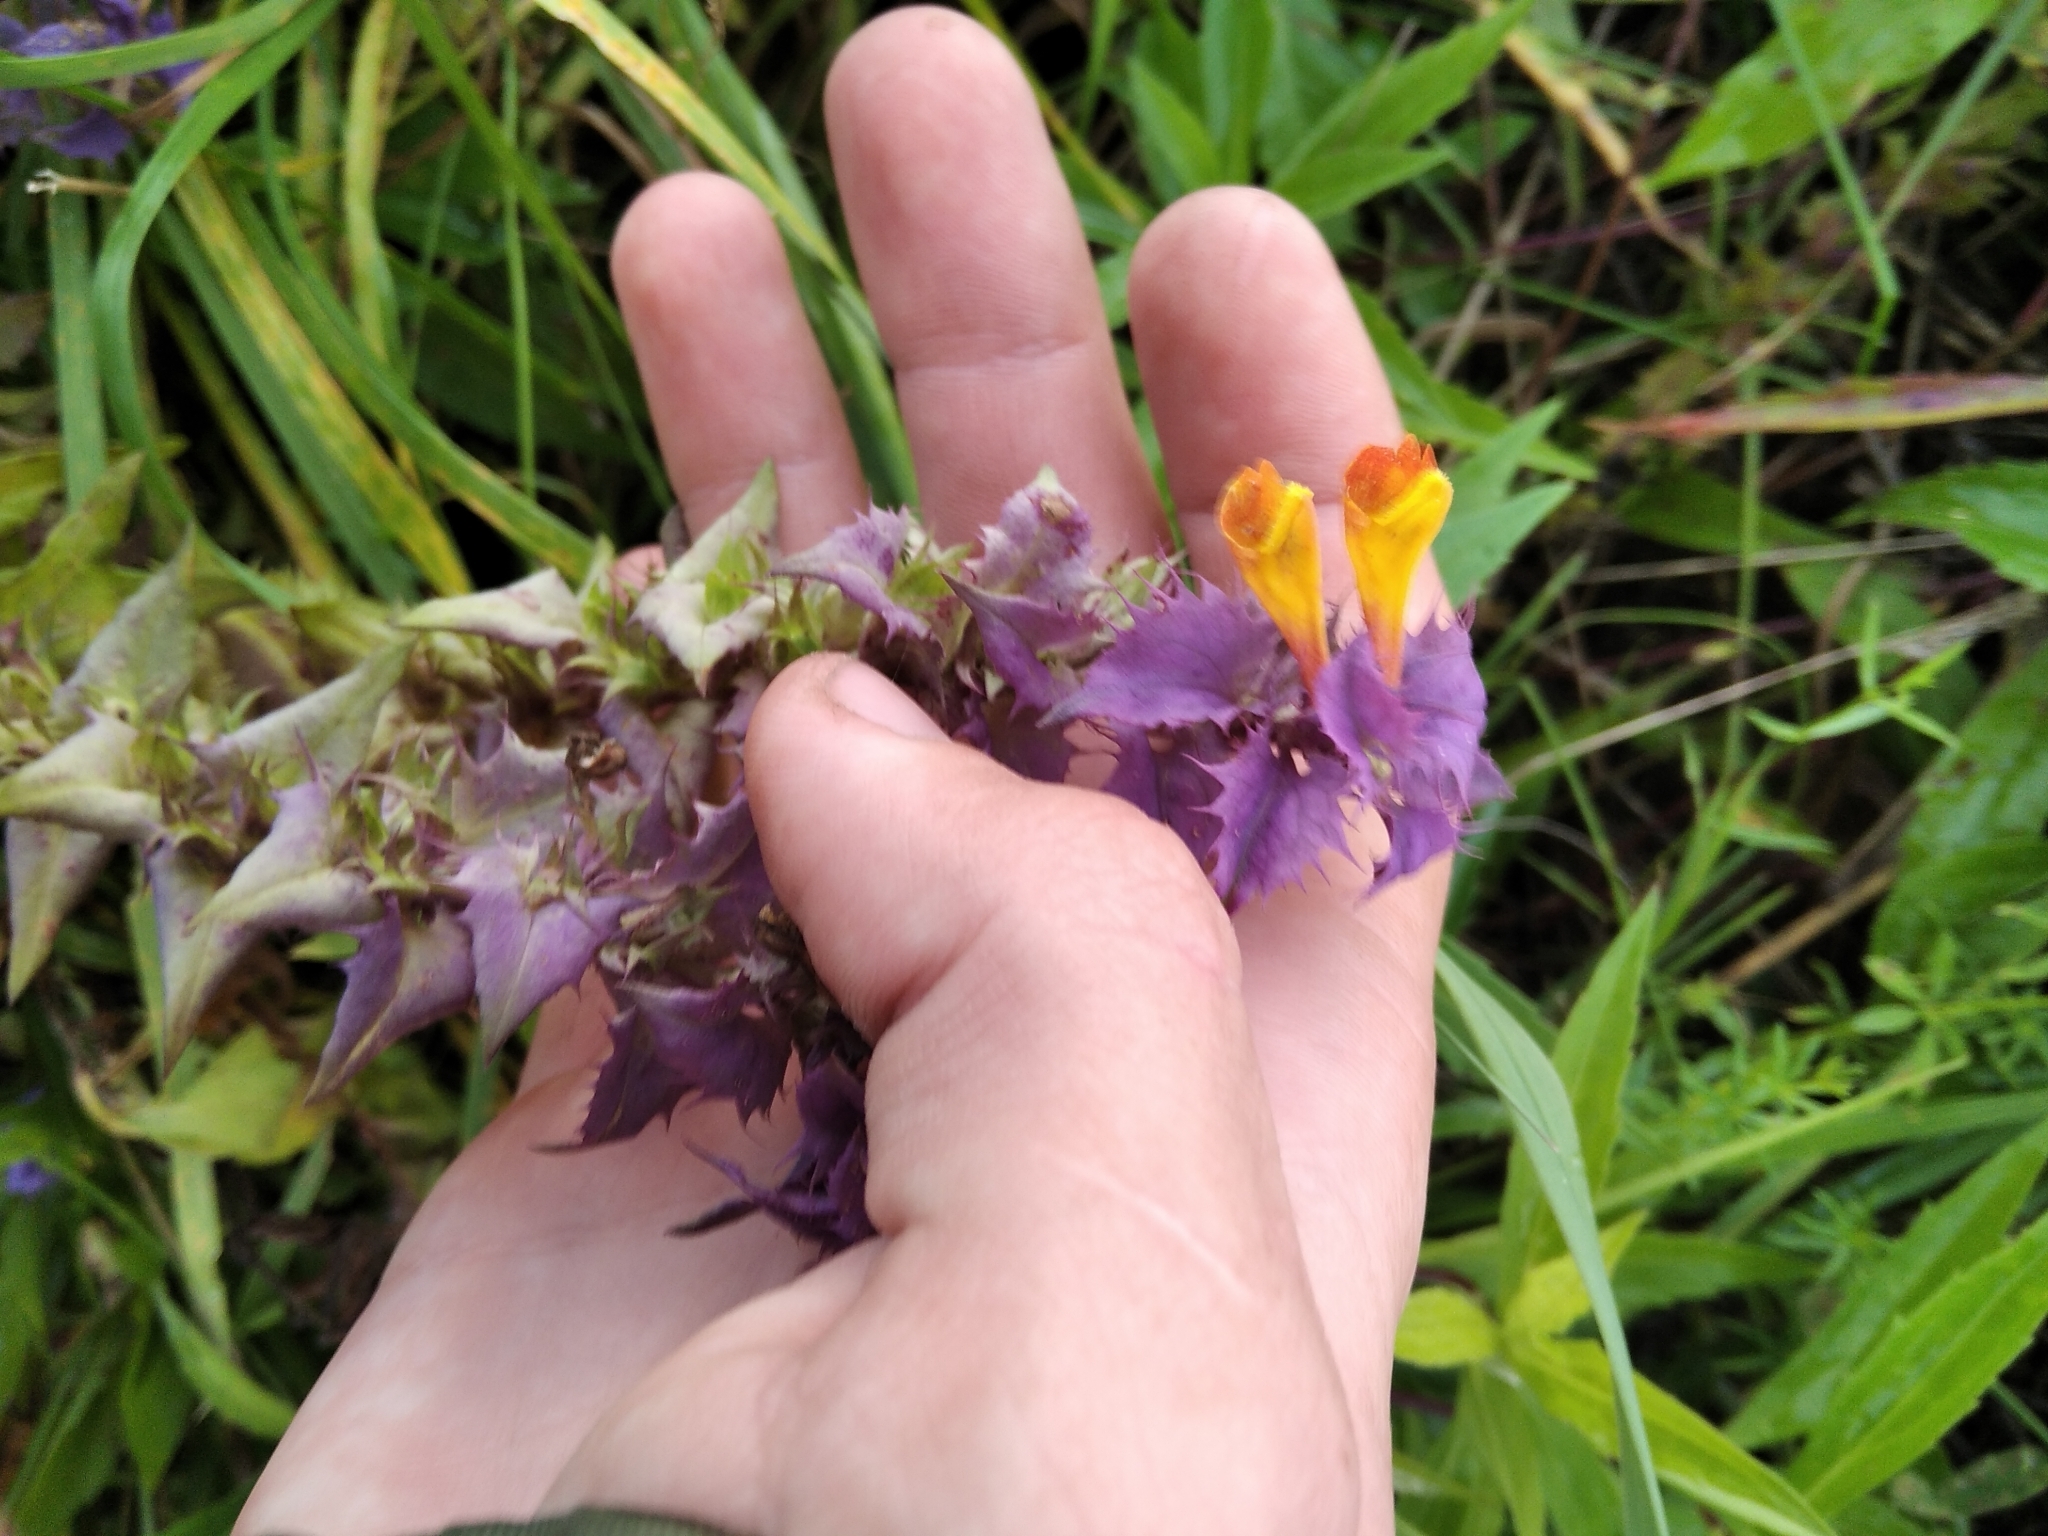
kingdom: Plantae
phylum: Tracheophyta
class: Magnoliopsida
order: Lamiales
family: Orobanchaceae
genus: Melampyrum
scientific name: Melampyrum nemorosum
